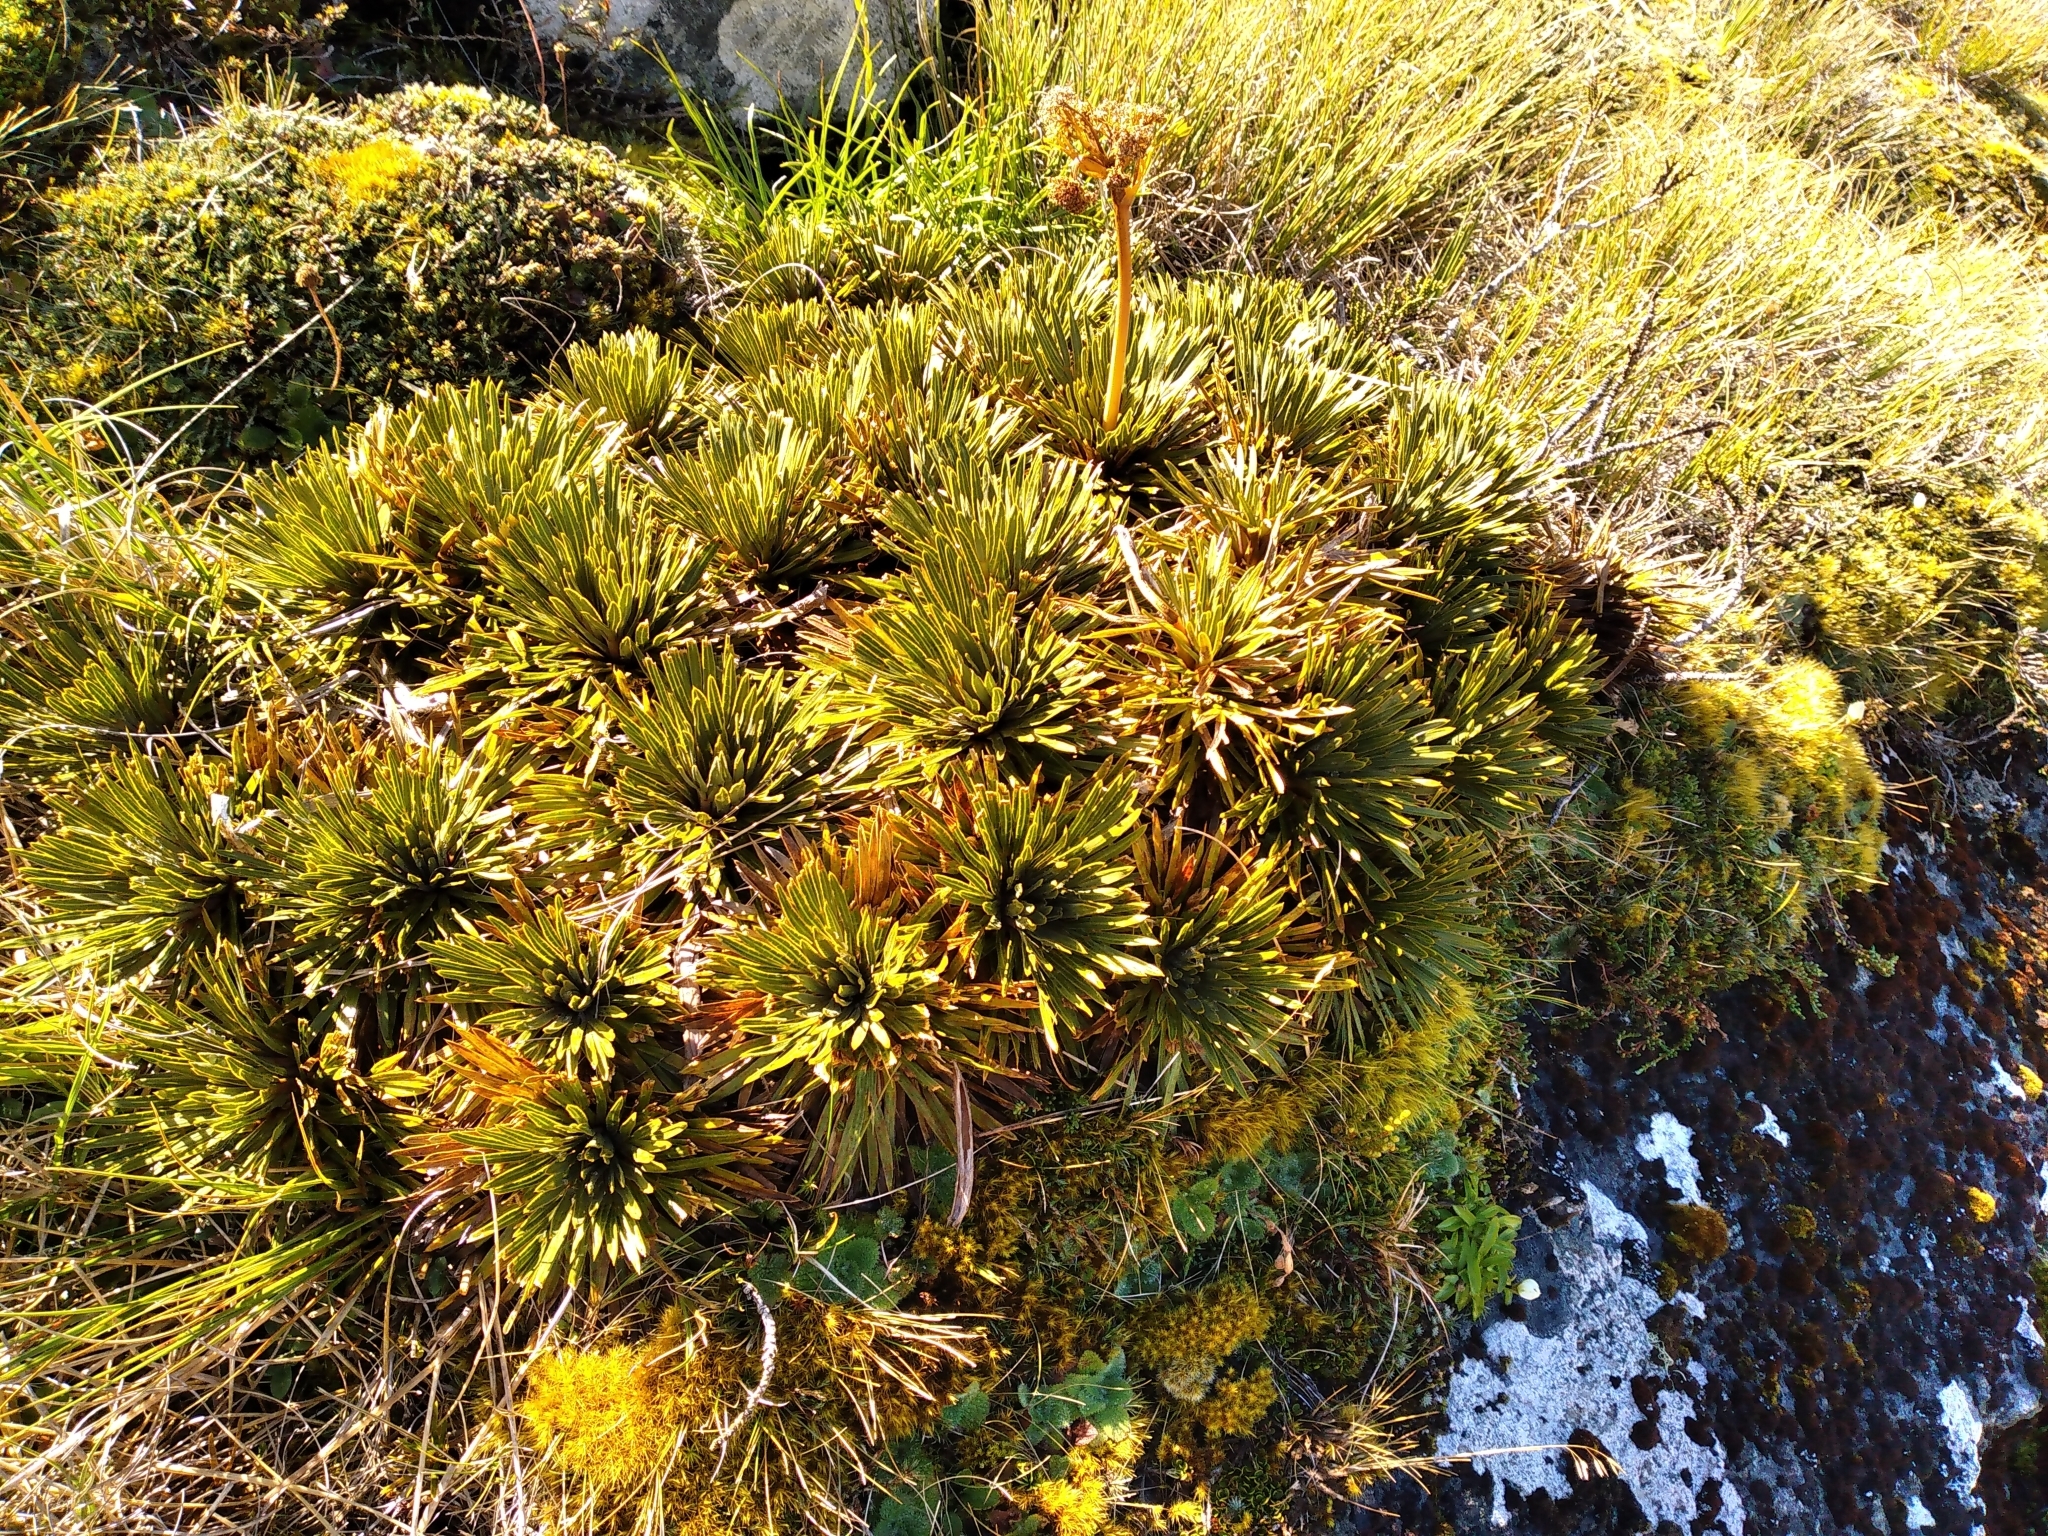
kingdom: Plantae
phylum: Tracheophyta
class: Magnoliopsida
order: Apiales
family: Apiaceae
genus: Aciphylla
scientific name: Aciphylla crosby-smithii
